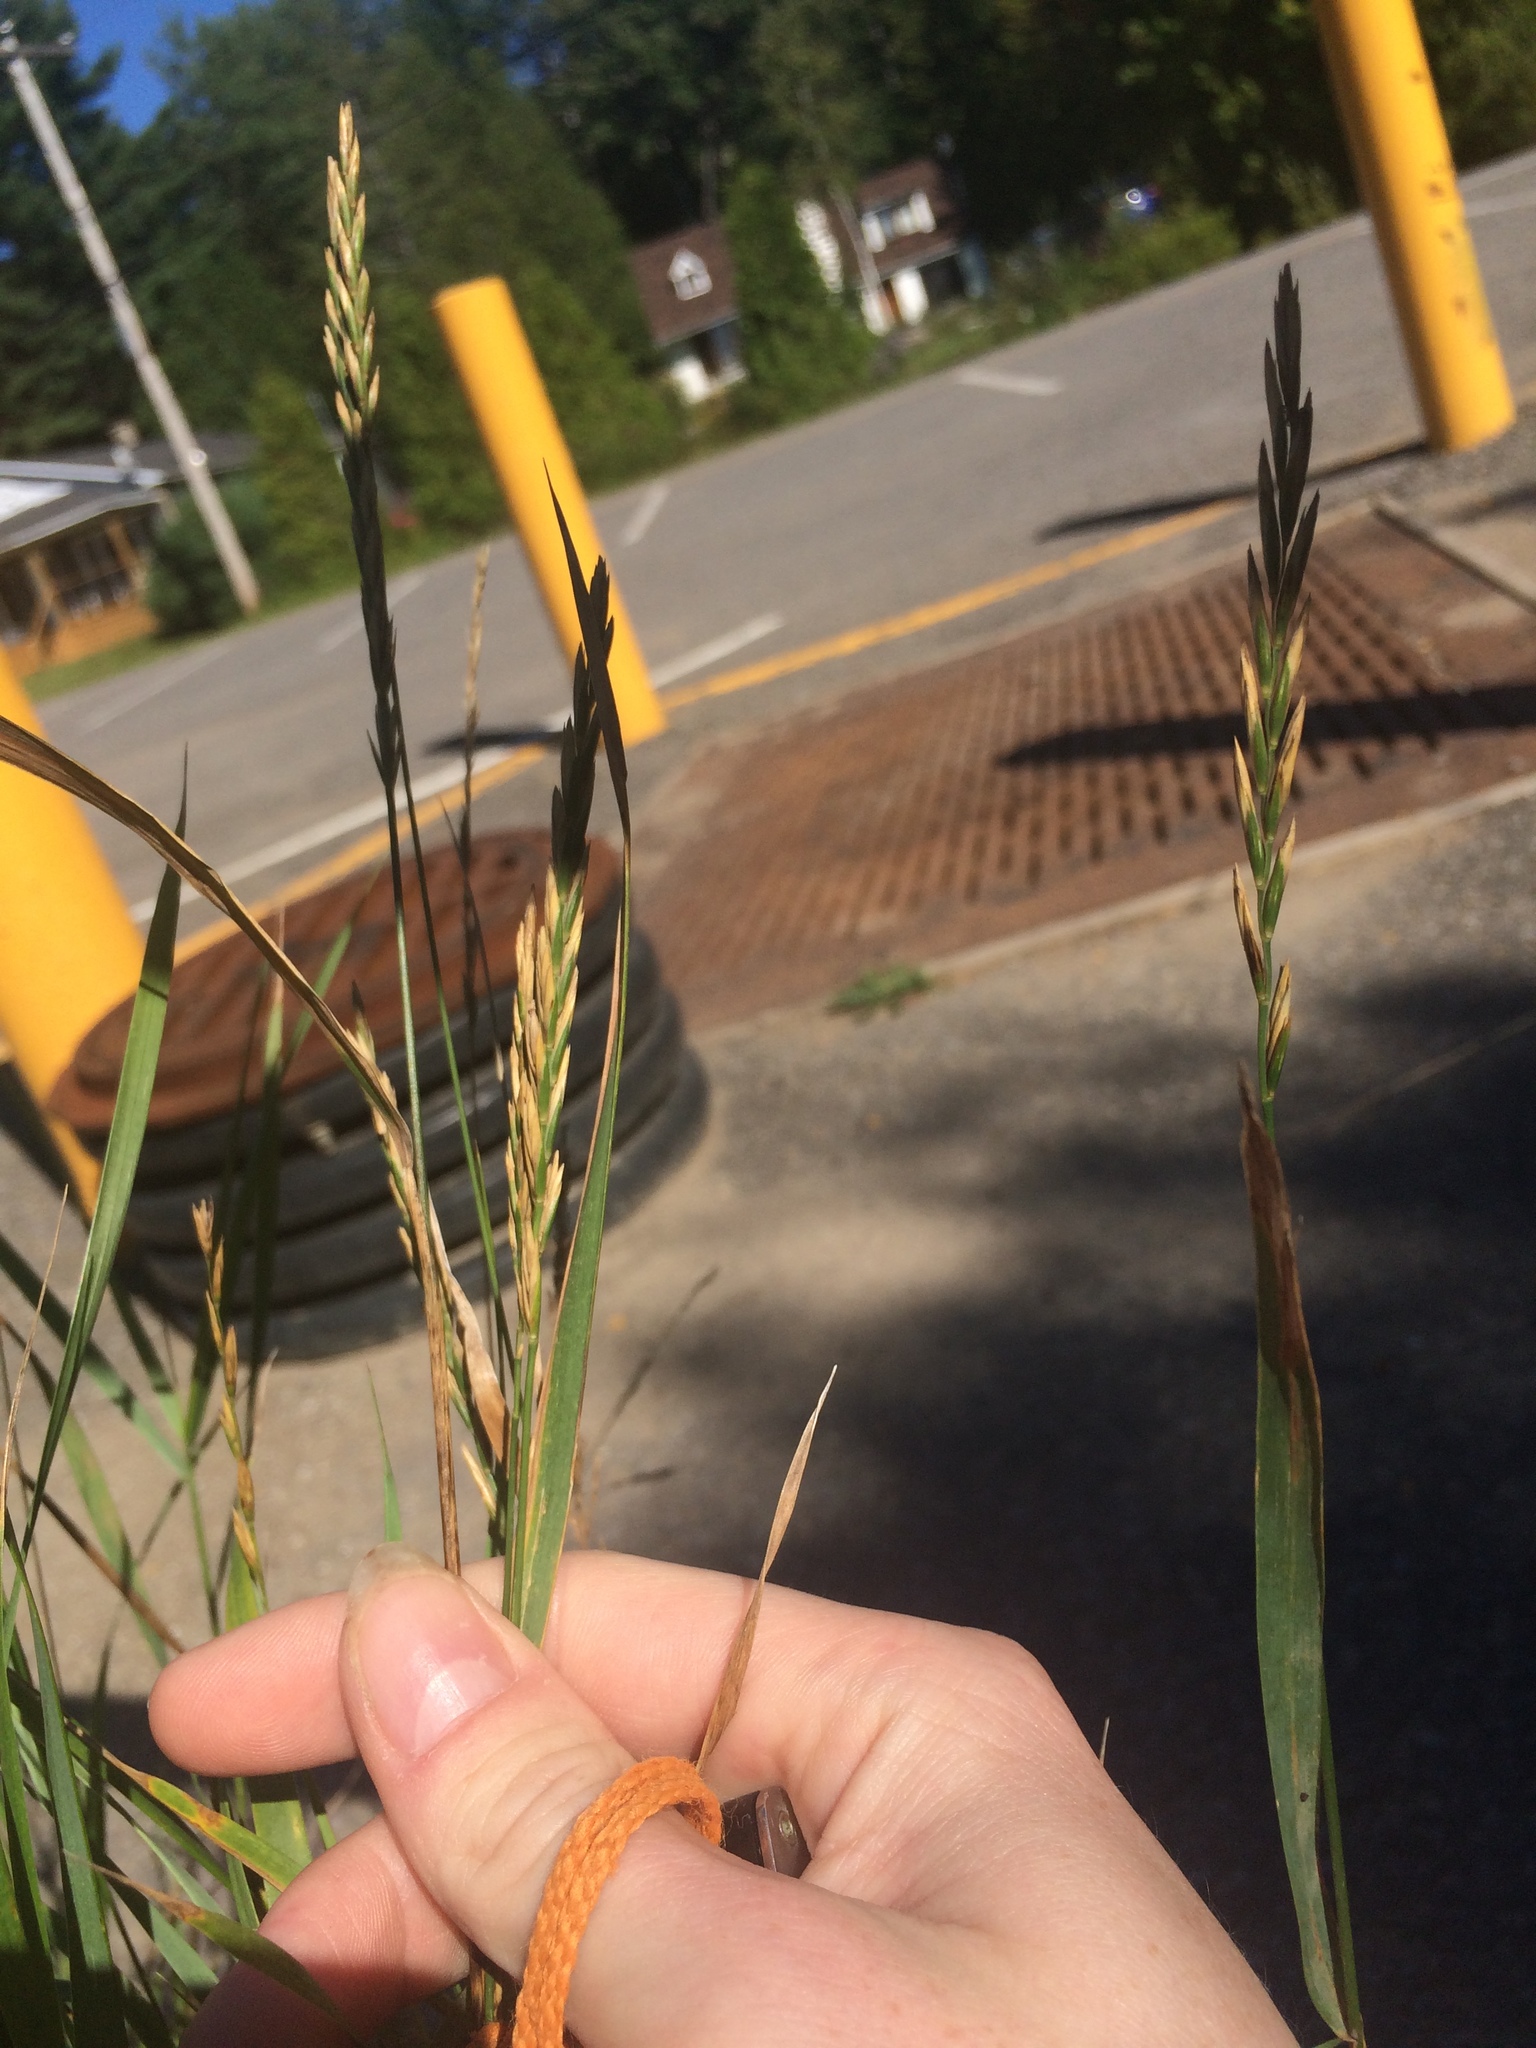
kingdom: Plantae
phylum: Tracheophyta
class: Liliopsida
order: Poales
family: Poaceae
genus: Elymus
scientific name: Elymus repens
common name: Quackgrass
